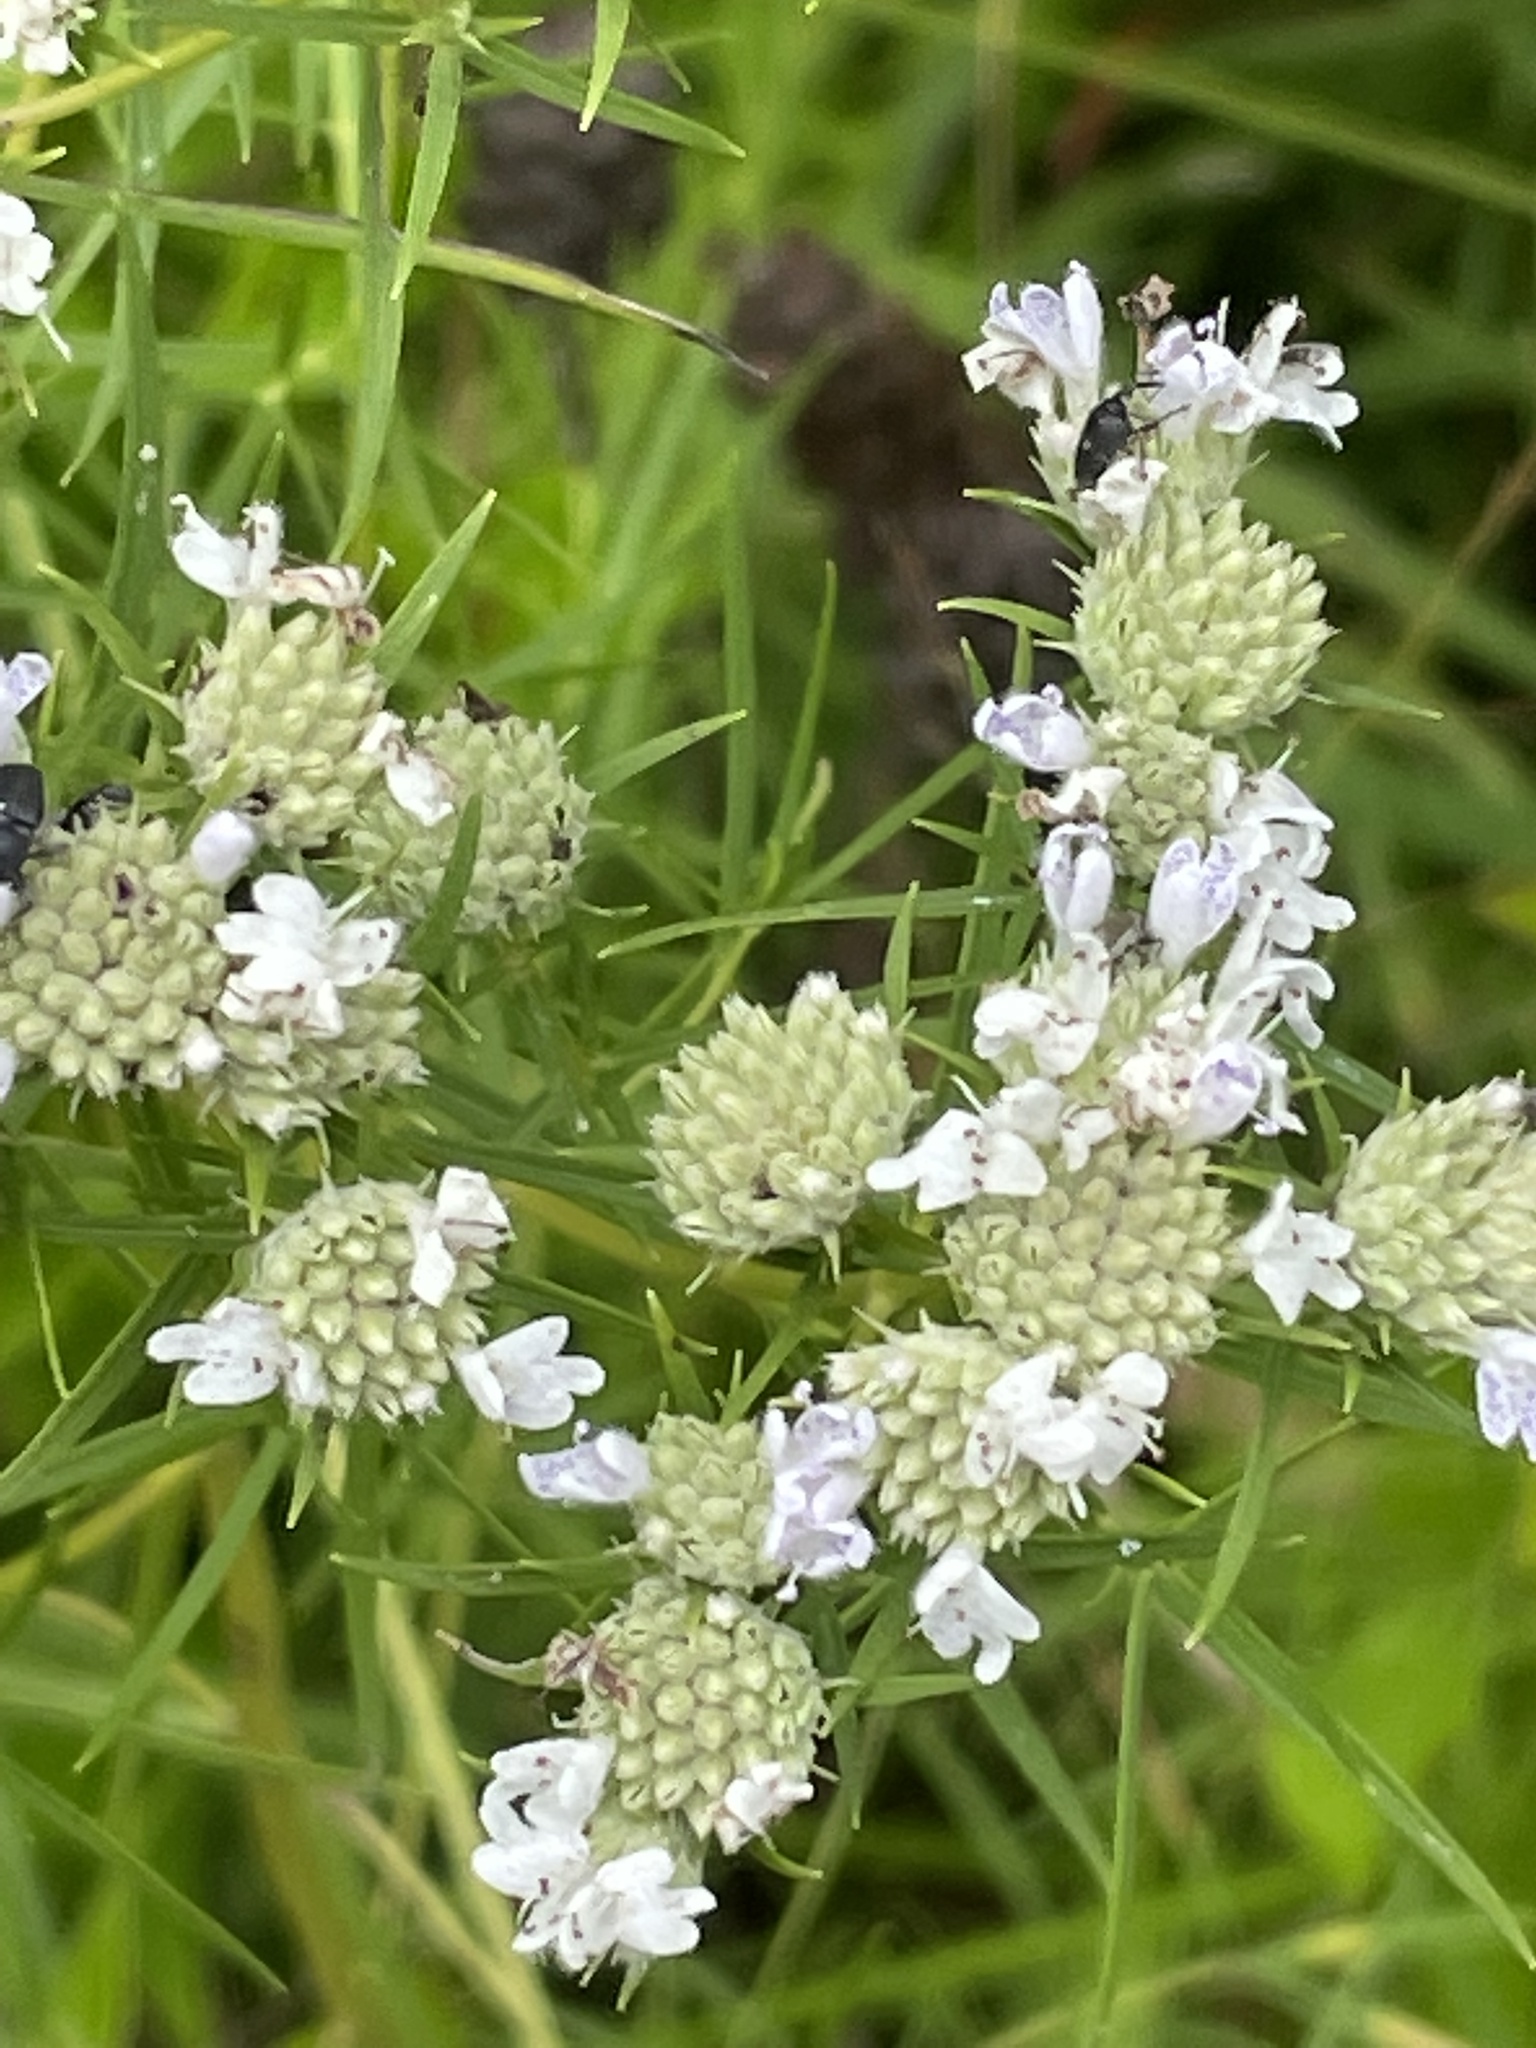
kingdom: Plantae
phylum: Tracheophyta
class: Magnoliopsida
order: Lamiales
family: Lamiaceae
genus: Pycnanthemum
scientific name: Pycnanthemum tenuifolium
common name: Narrow-leaf mountain-mint
